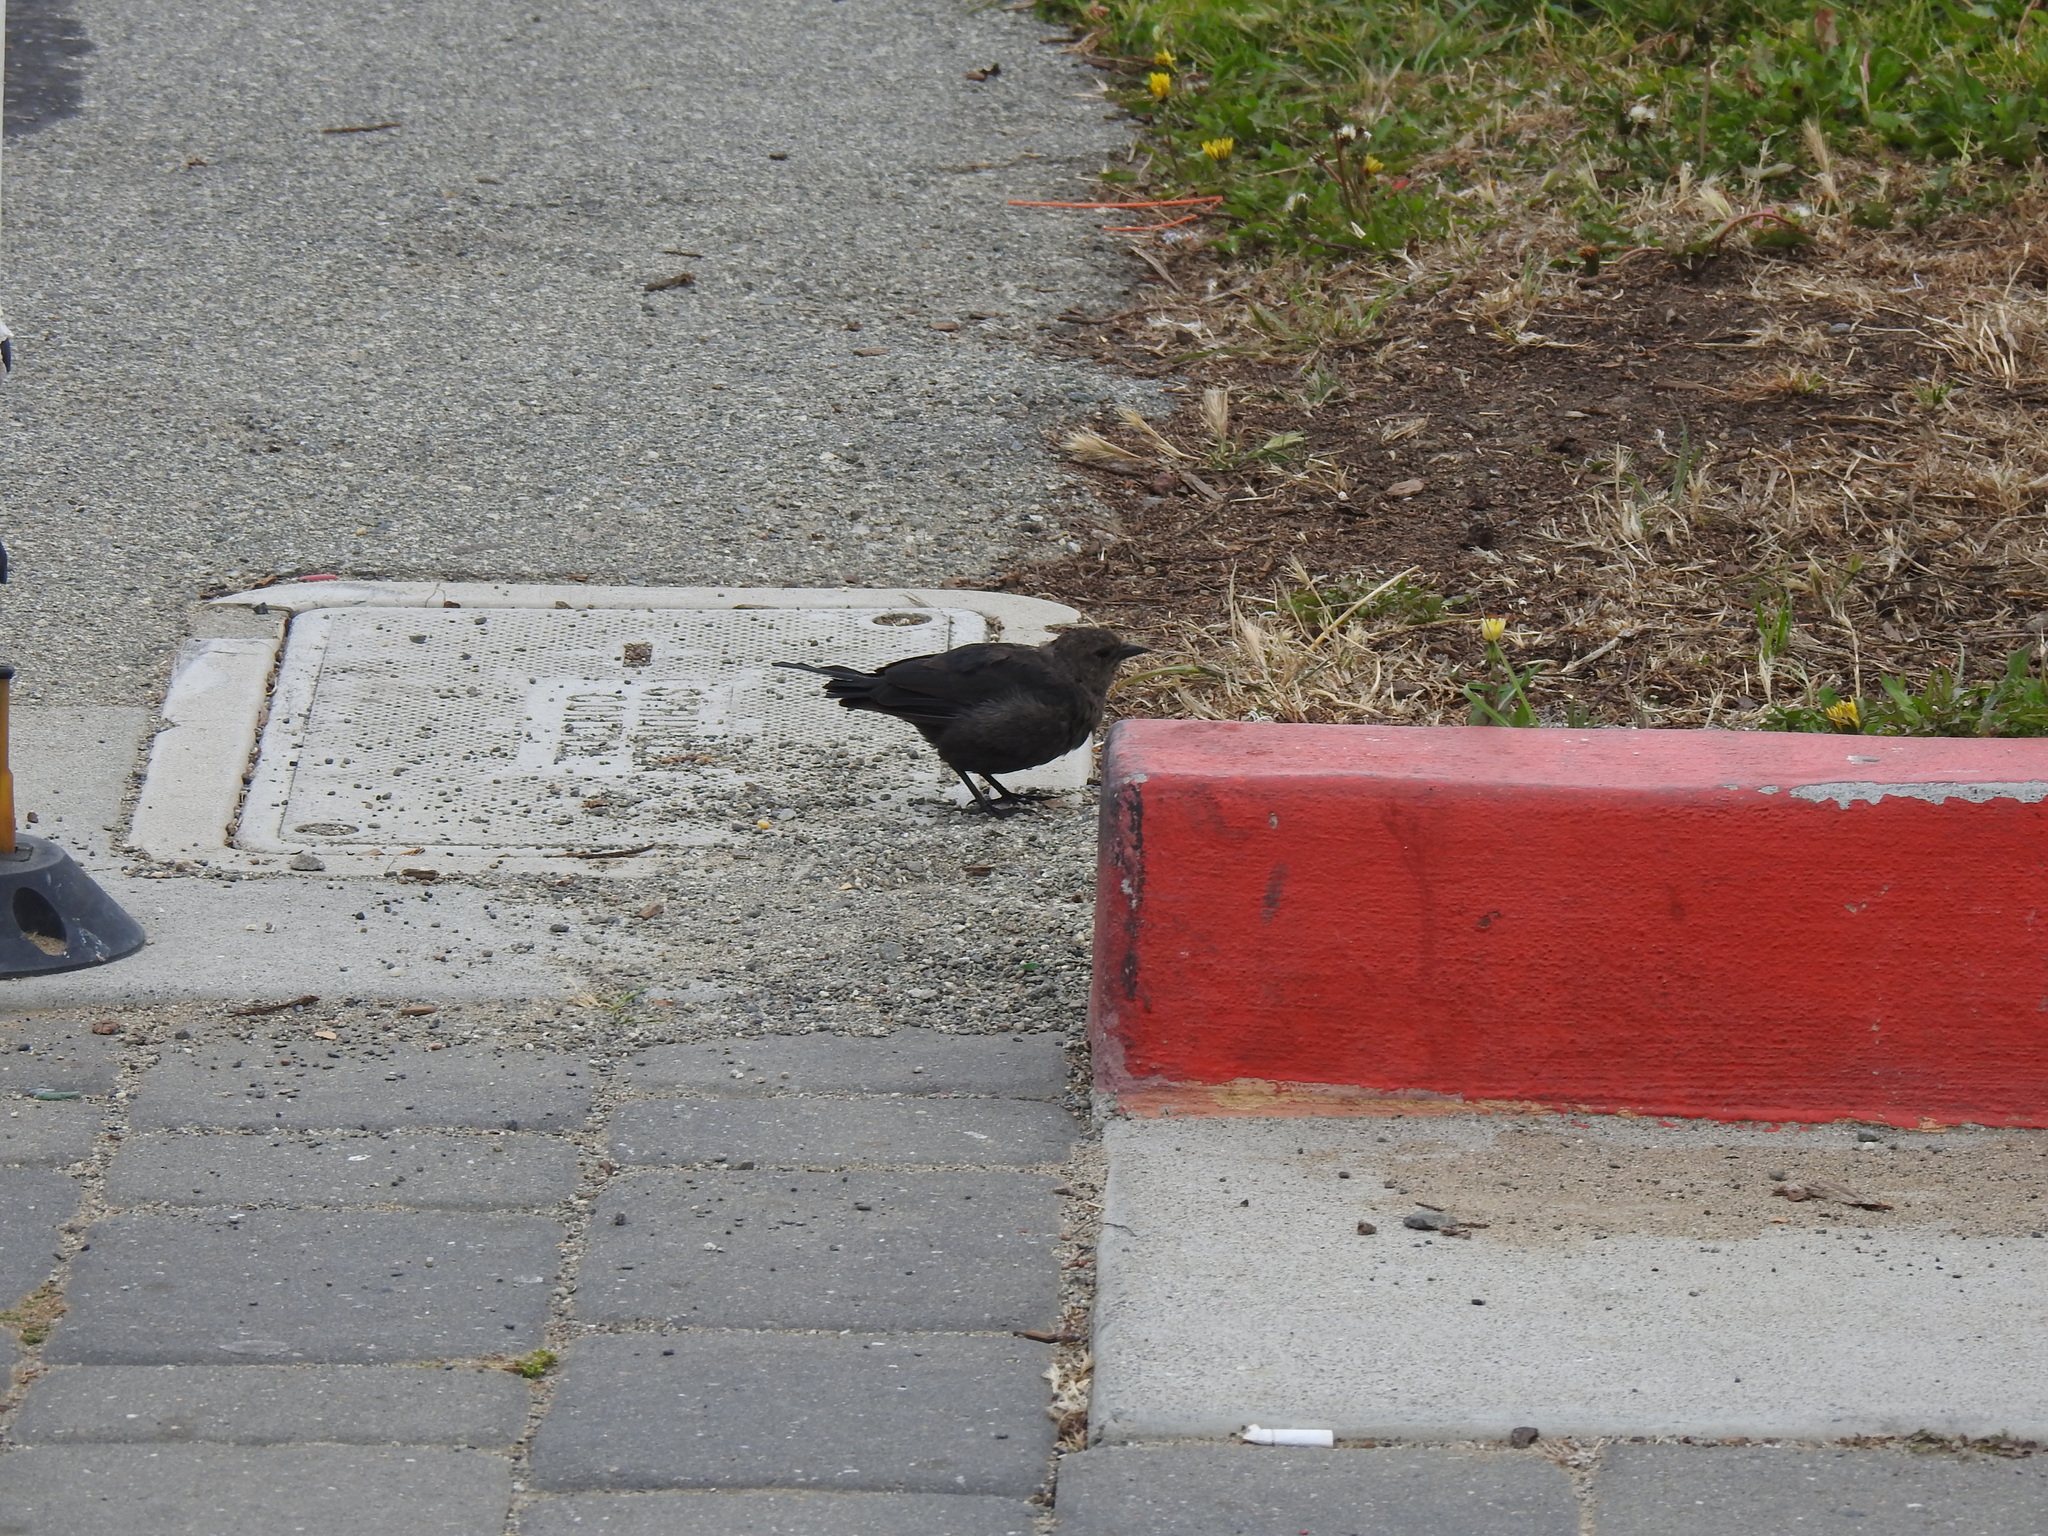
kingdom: Animalia
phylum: Chordata
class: Aves
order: Passeriformes
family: Icteridae
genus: Euphagus
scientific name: Euphagus cyanocephalus
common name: Brewer's blackbird
